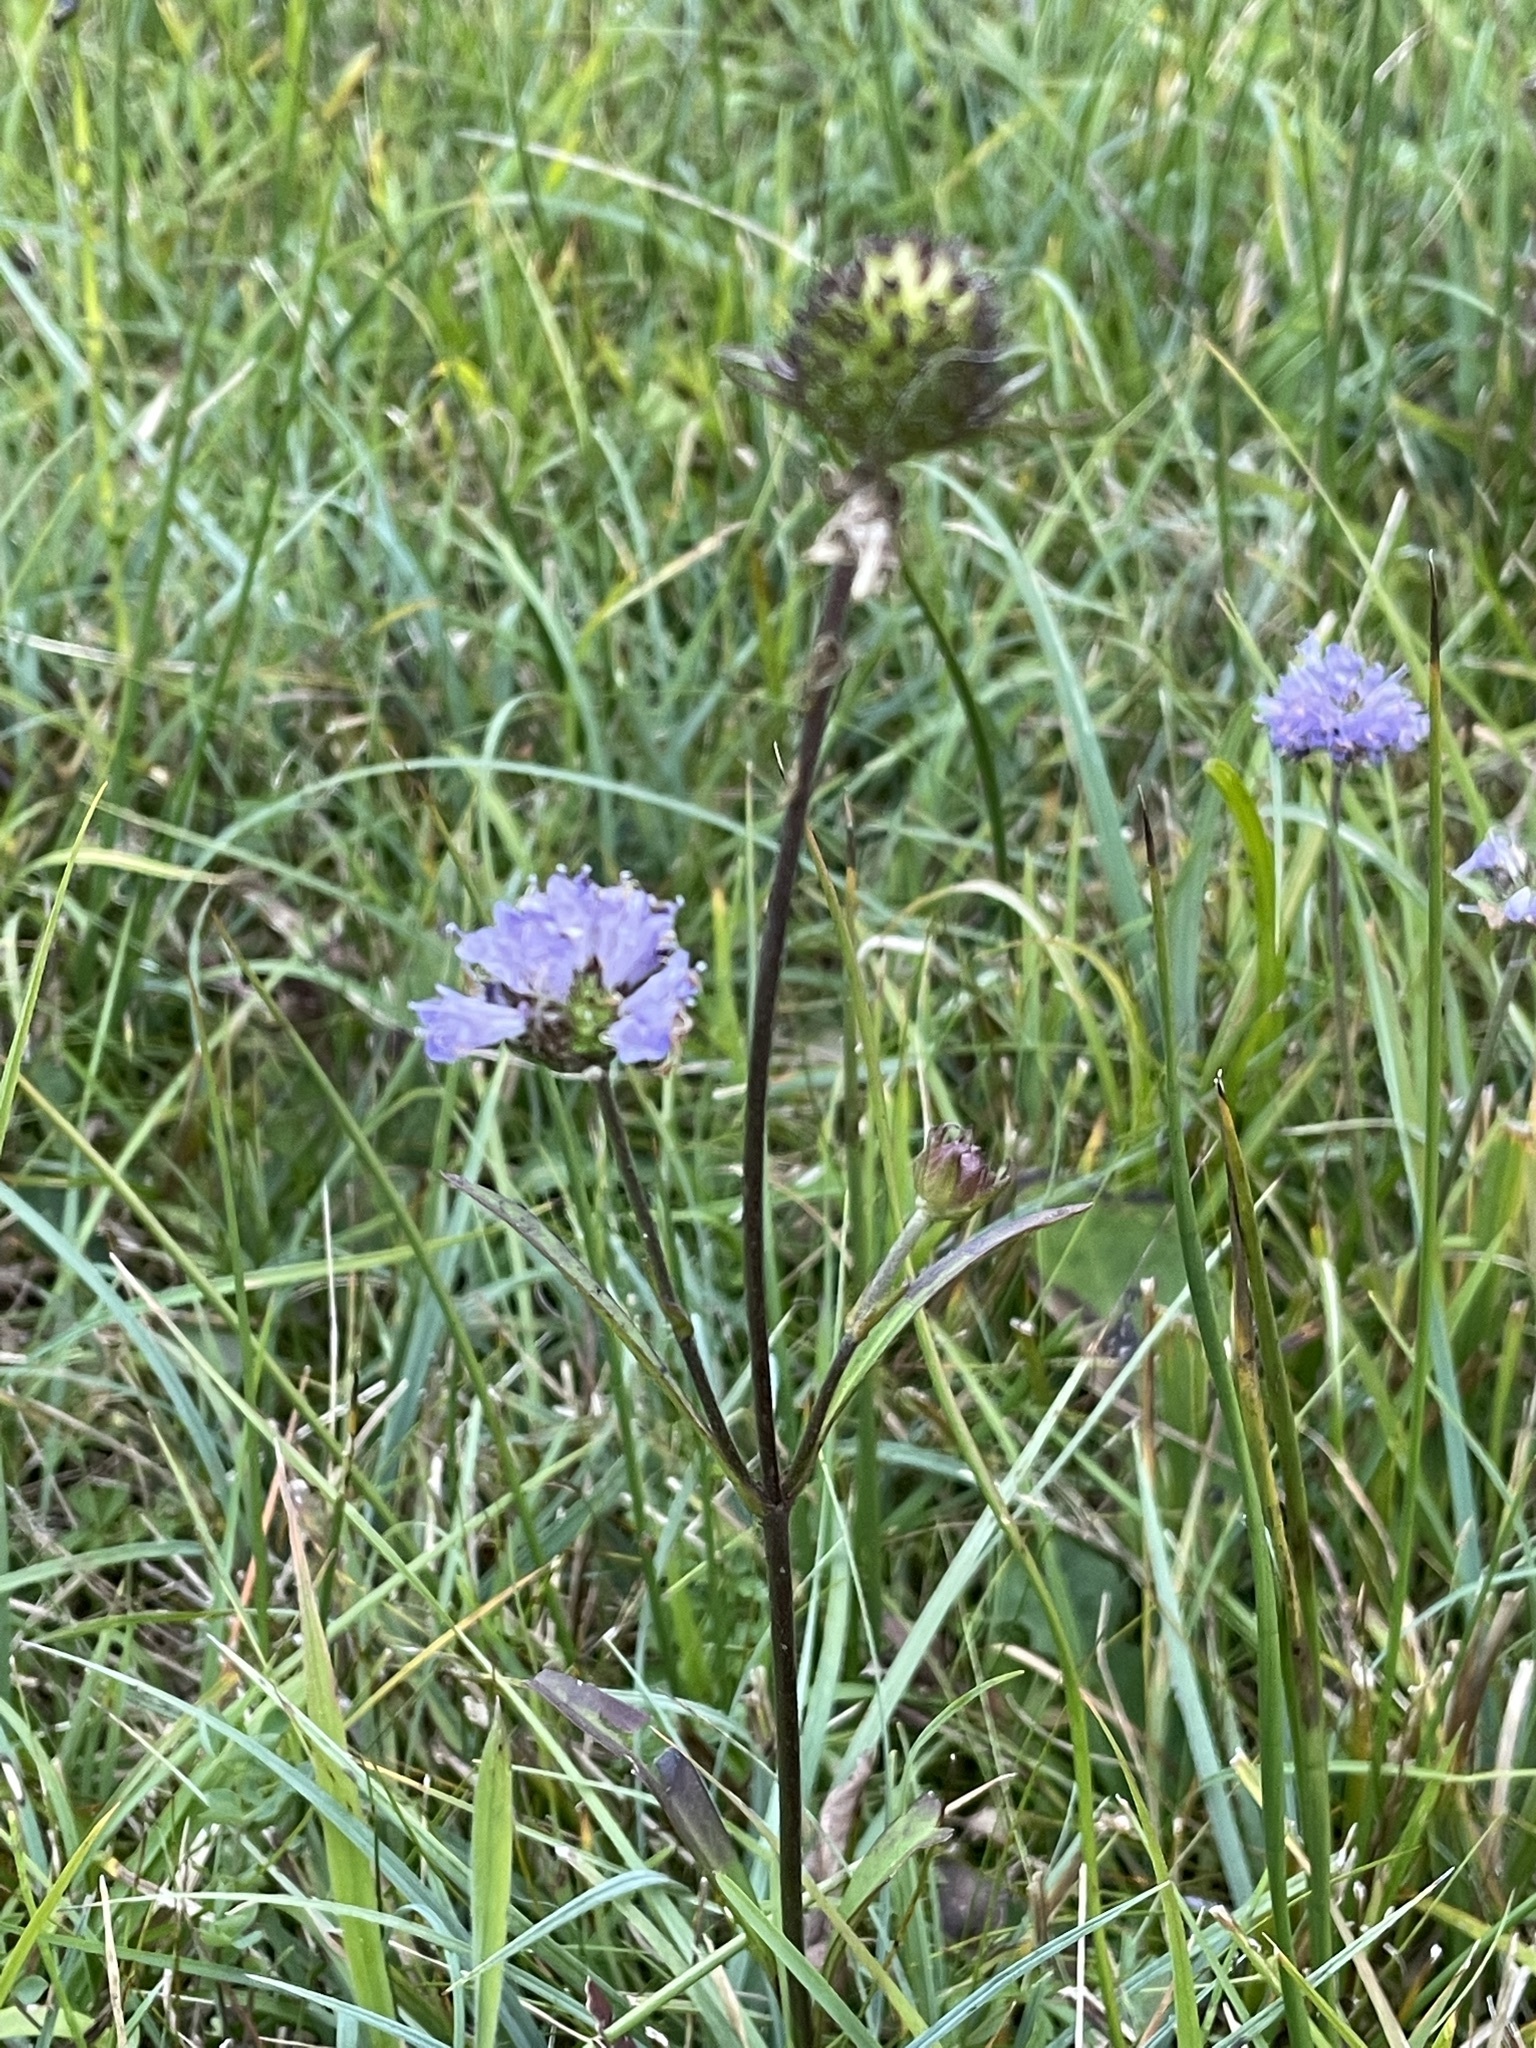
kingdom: Plantae
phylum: Tracheophyta
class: Magnoliopsida
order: Dipsacales
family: Caprifoliaceae
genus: Succisa
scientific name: Succisa pratensis
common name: Devil's-bit
